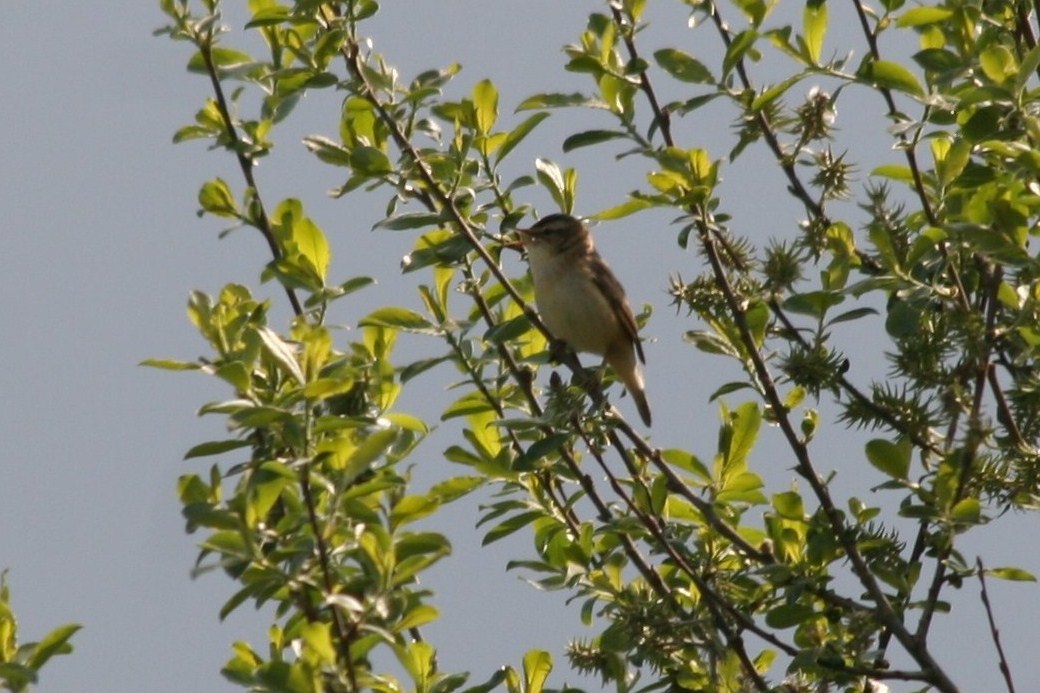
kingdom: Animalia
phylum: Chordata
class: Aves
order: Passeriformes
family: Acrocephalidae
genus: Acrocephalus
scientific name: Acrocephalus schoenobaenus
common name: Sedge warbler
